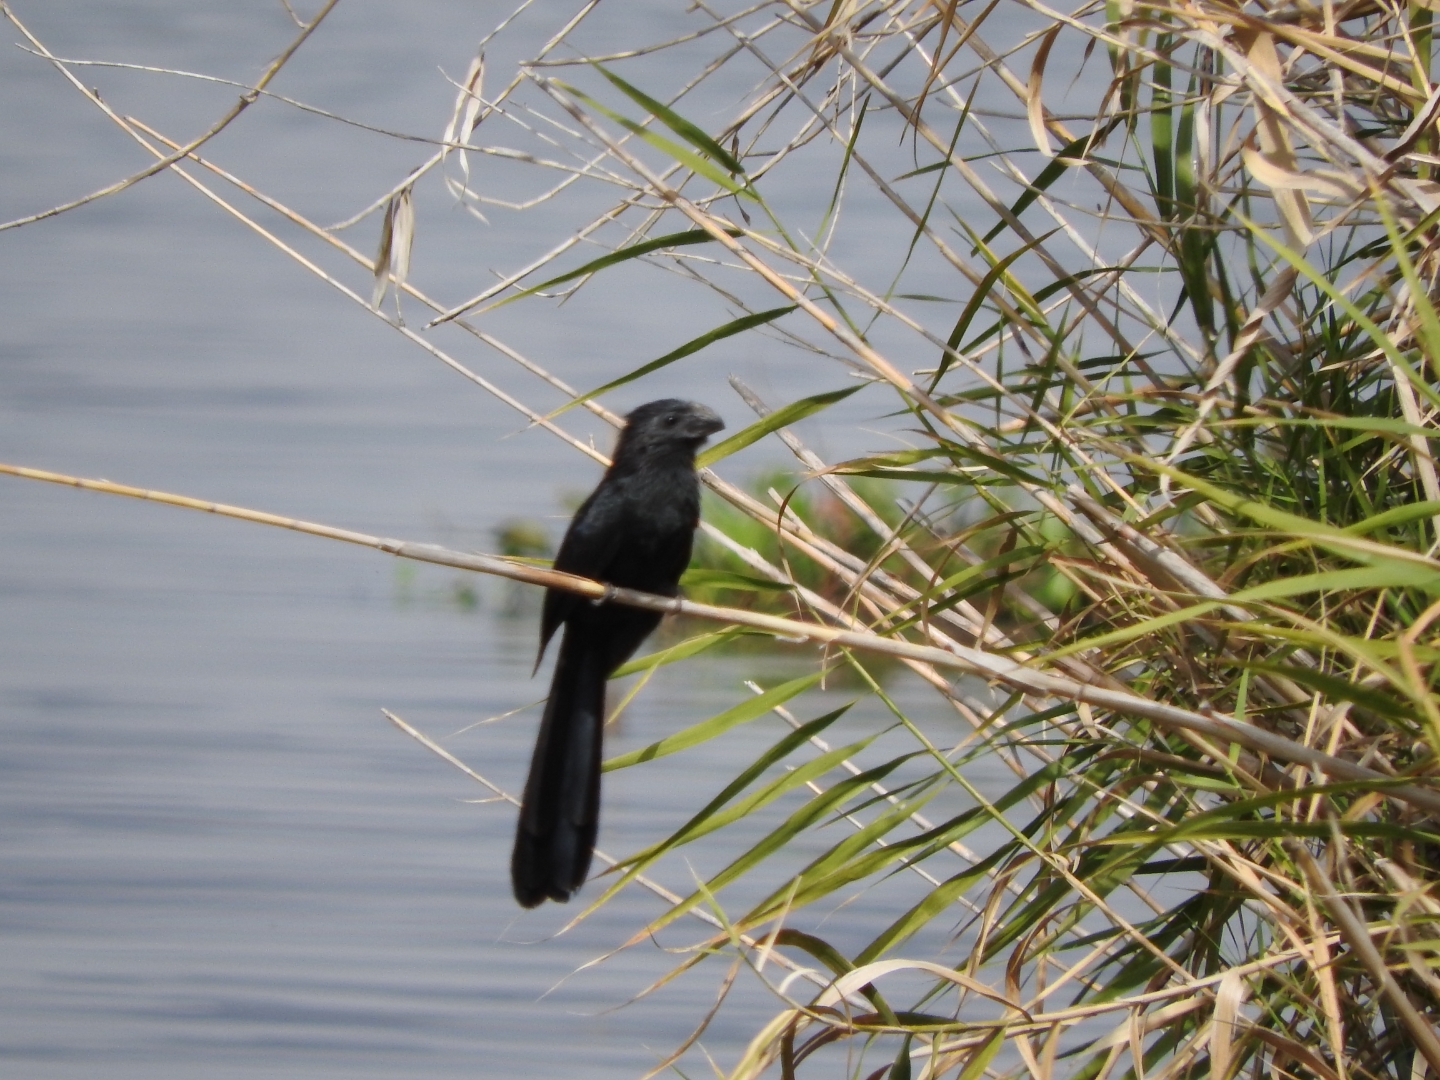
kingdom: Animalia
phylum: Chordata
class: Aves
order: Cuculiformes
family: Cuculidae
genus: Crotophaga
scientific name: Crotophaga sulcirostris
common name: Groove-billed ani
